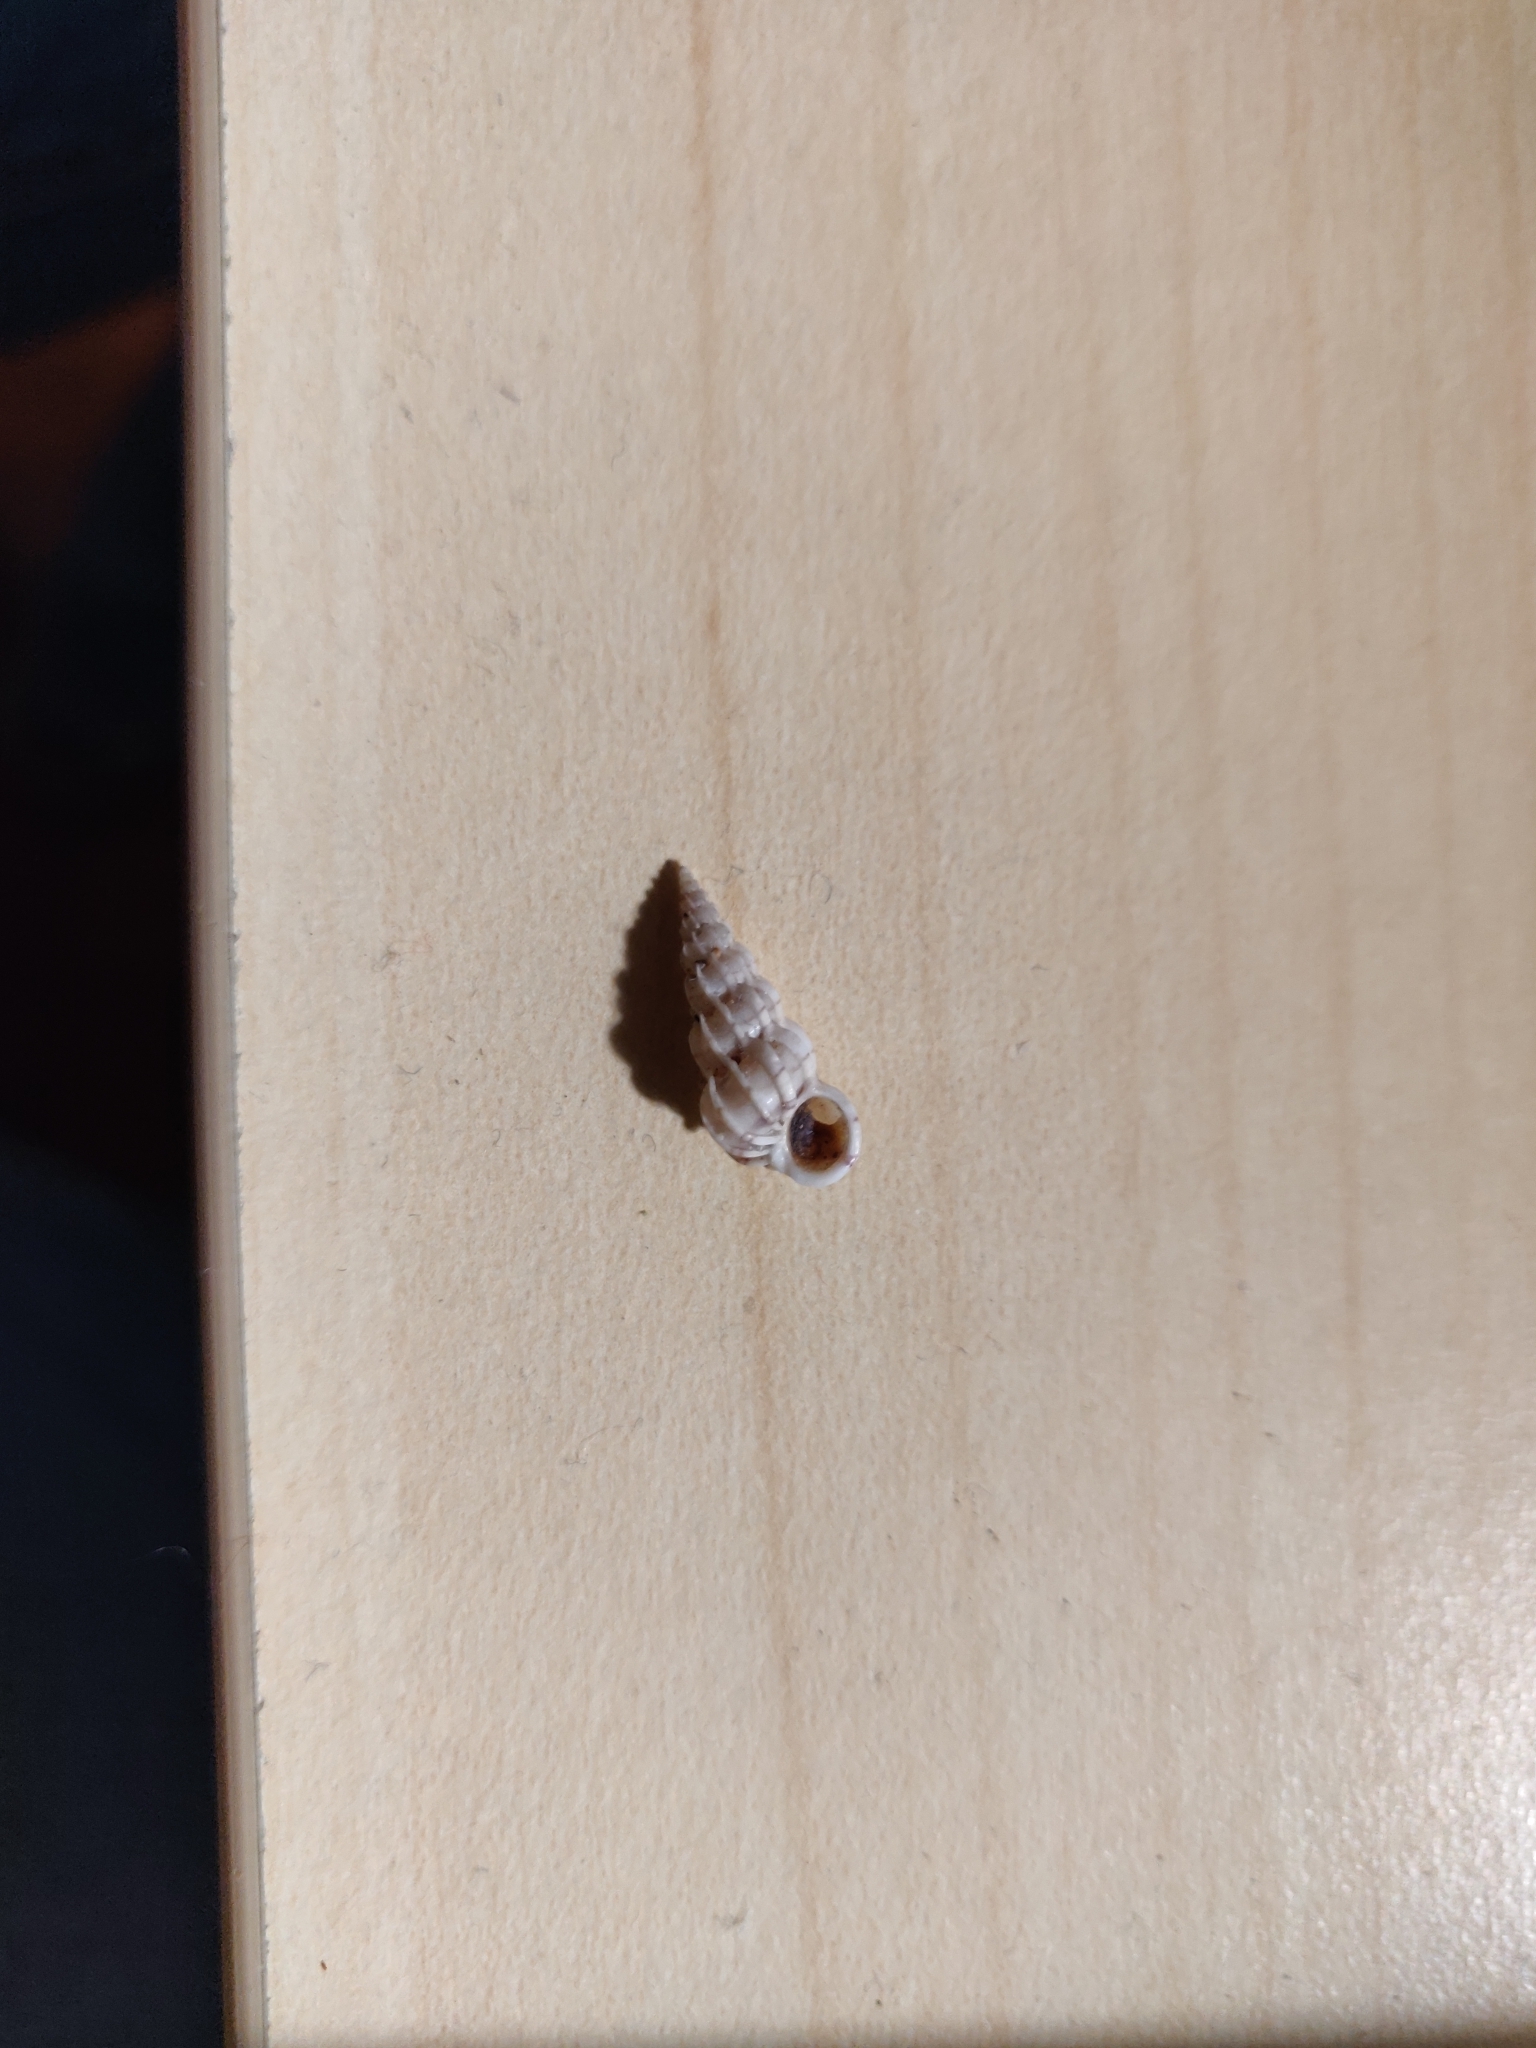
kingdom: Animalia
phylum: Mollusca
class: Gastropoda
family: Epitoniidae
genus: Epitonium
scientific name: Epitonium clathrus
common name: Common wentletrap
